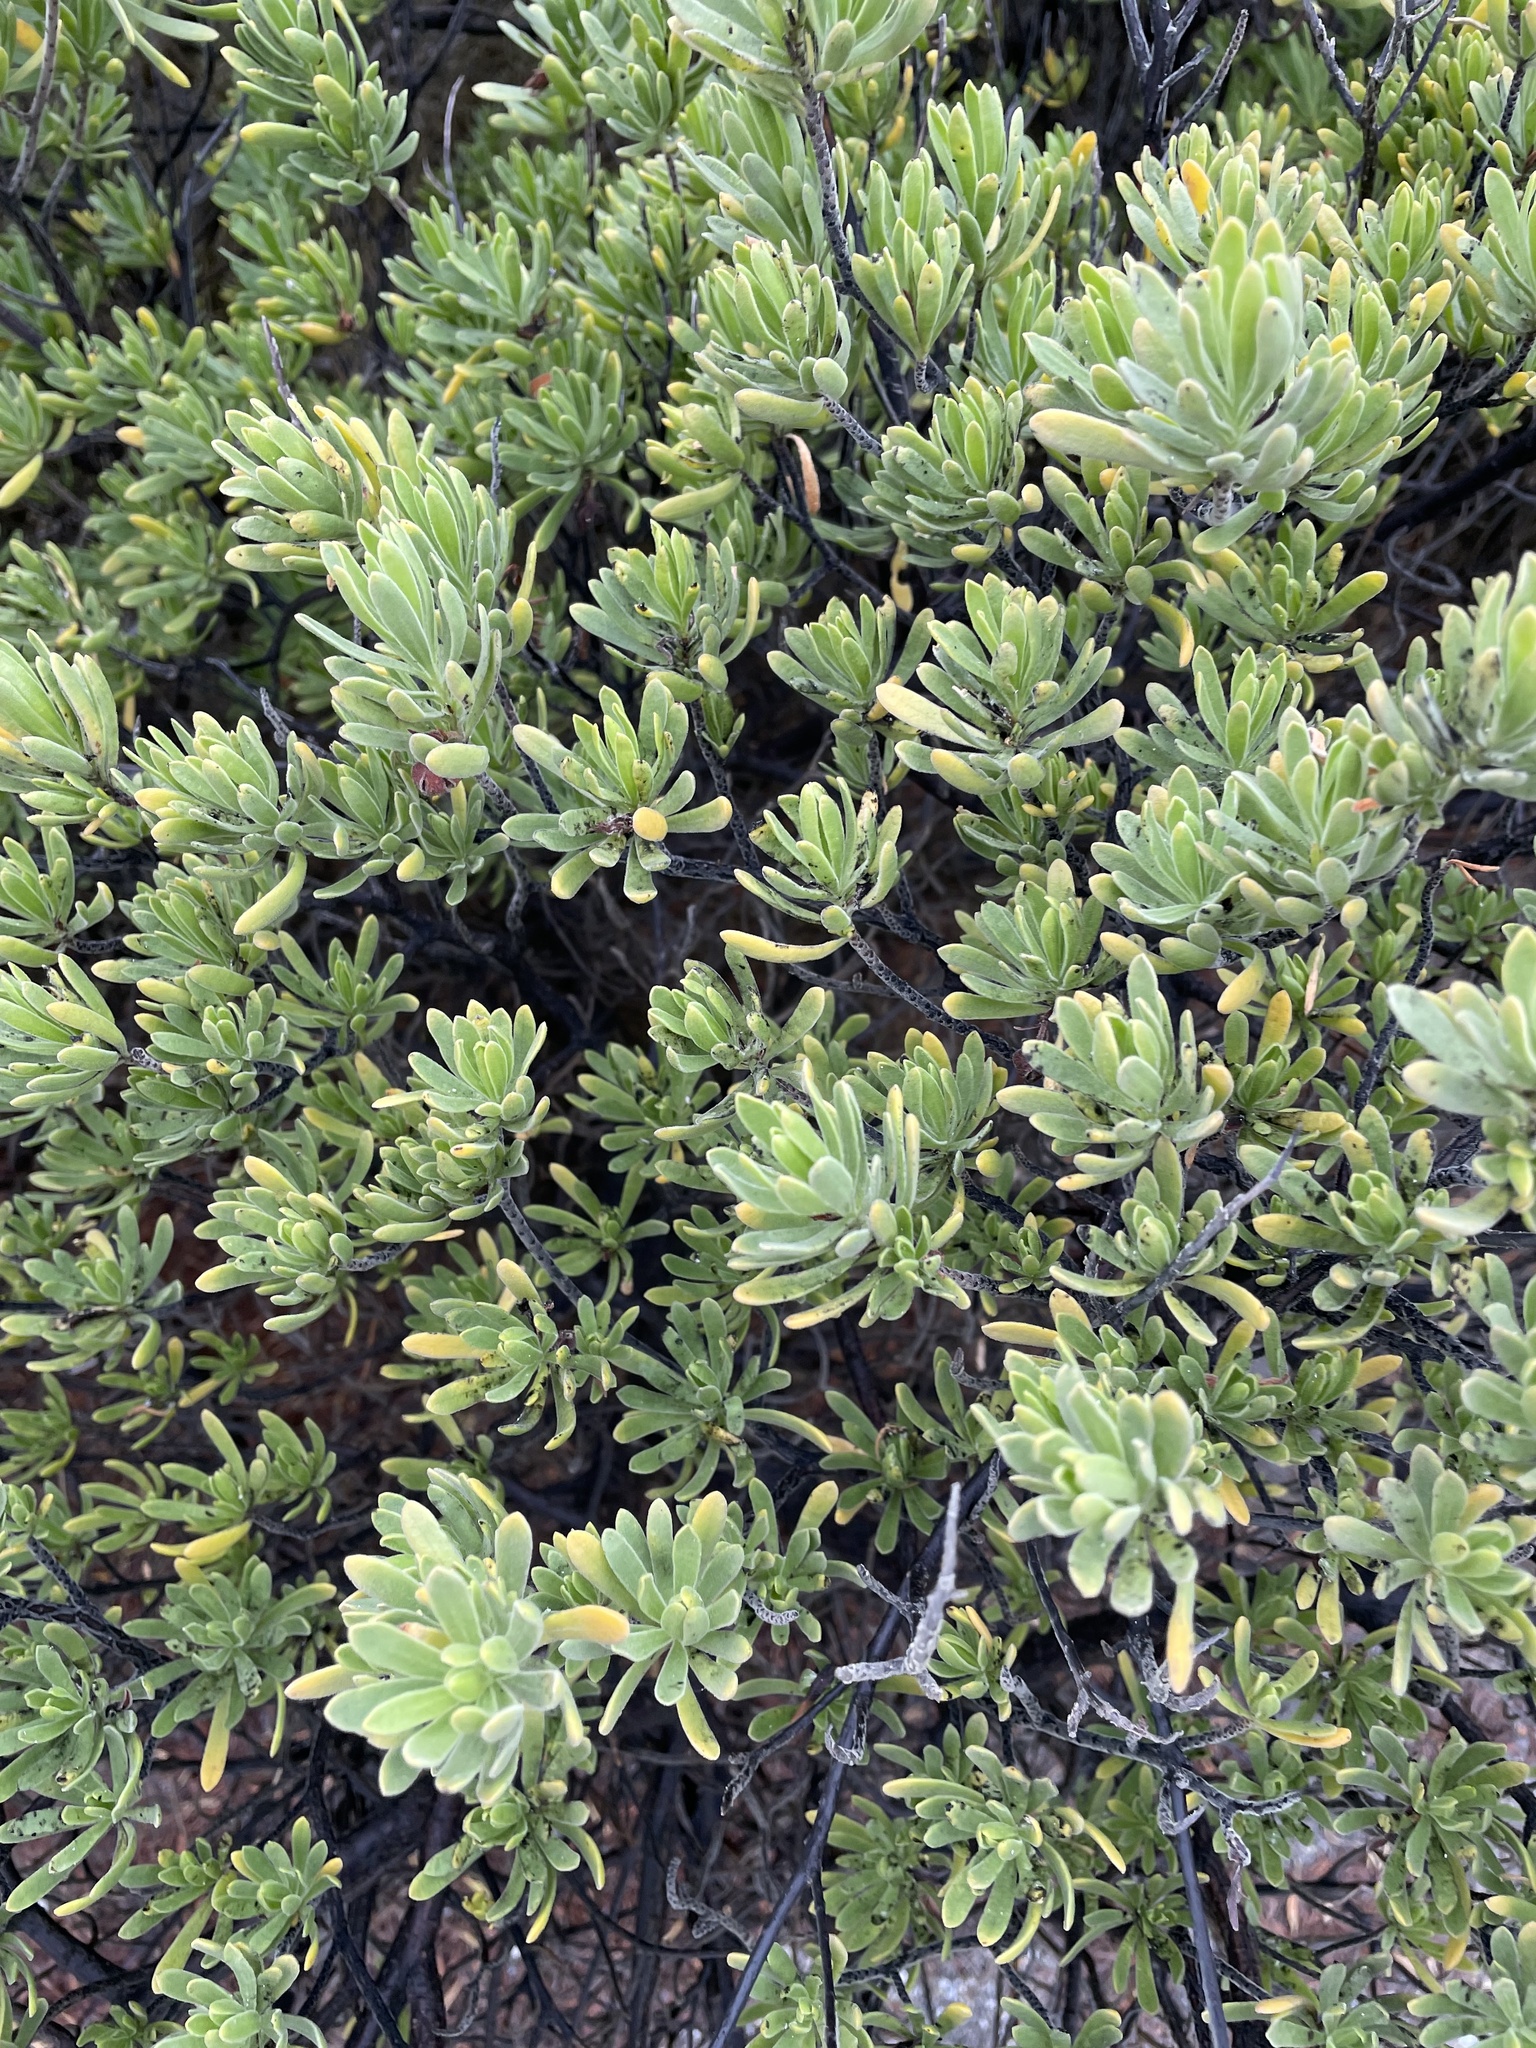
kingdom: Plantae
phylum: Tracheophyta
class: Magnoliopsida
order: Fabales
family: Surianaceae
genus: Suriana
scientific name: Suriana maritima
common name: Bay-cedar
